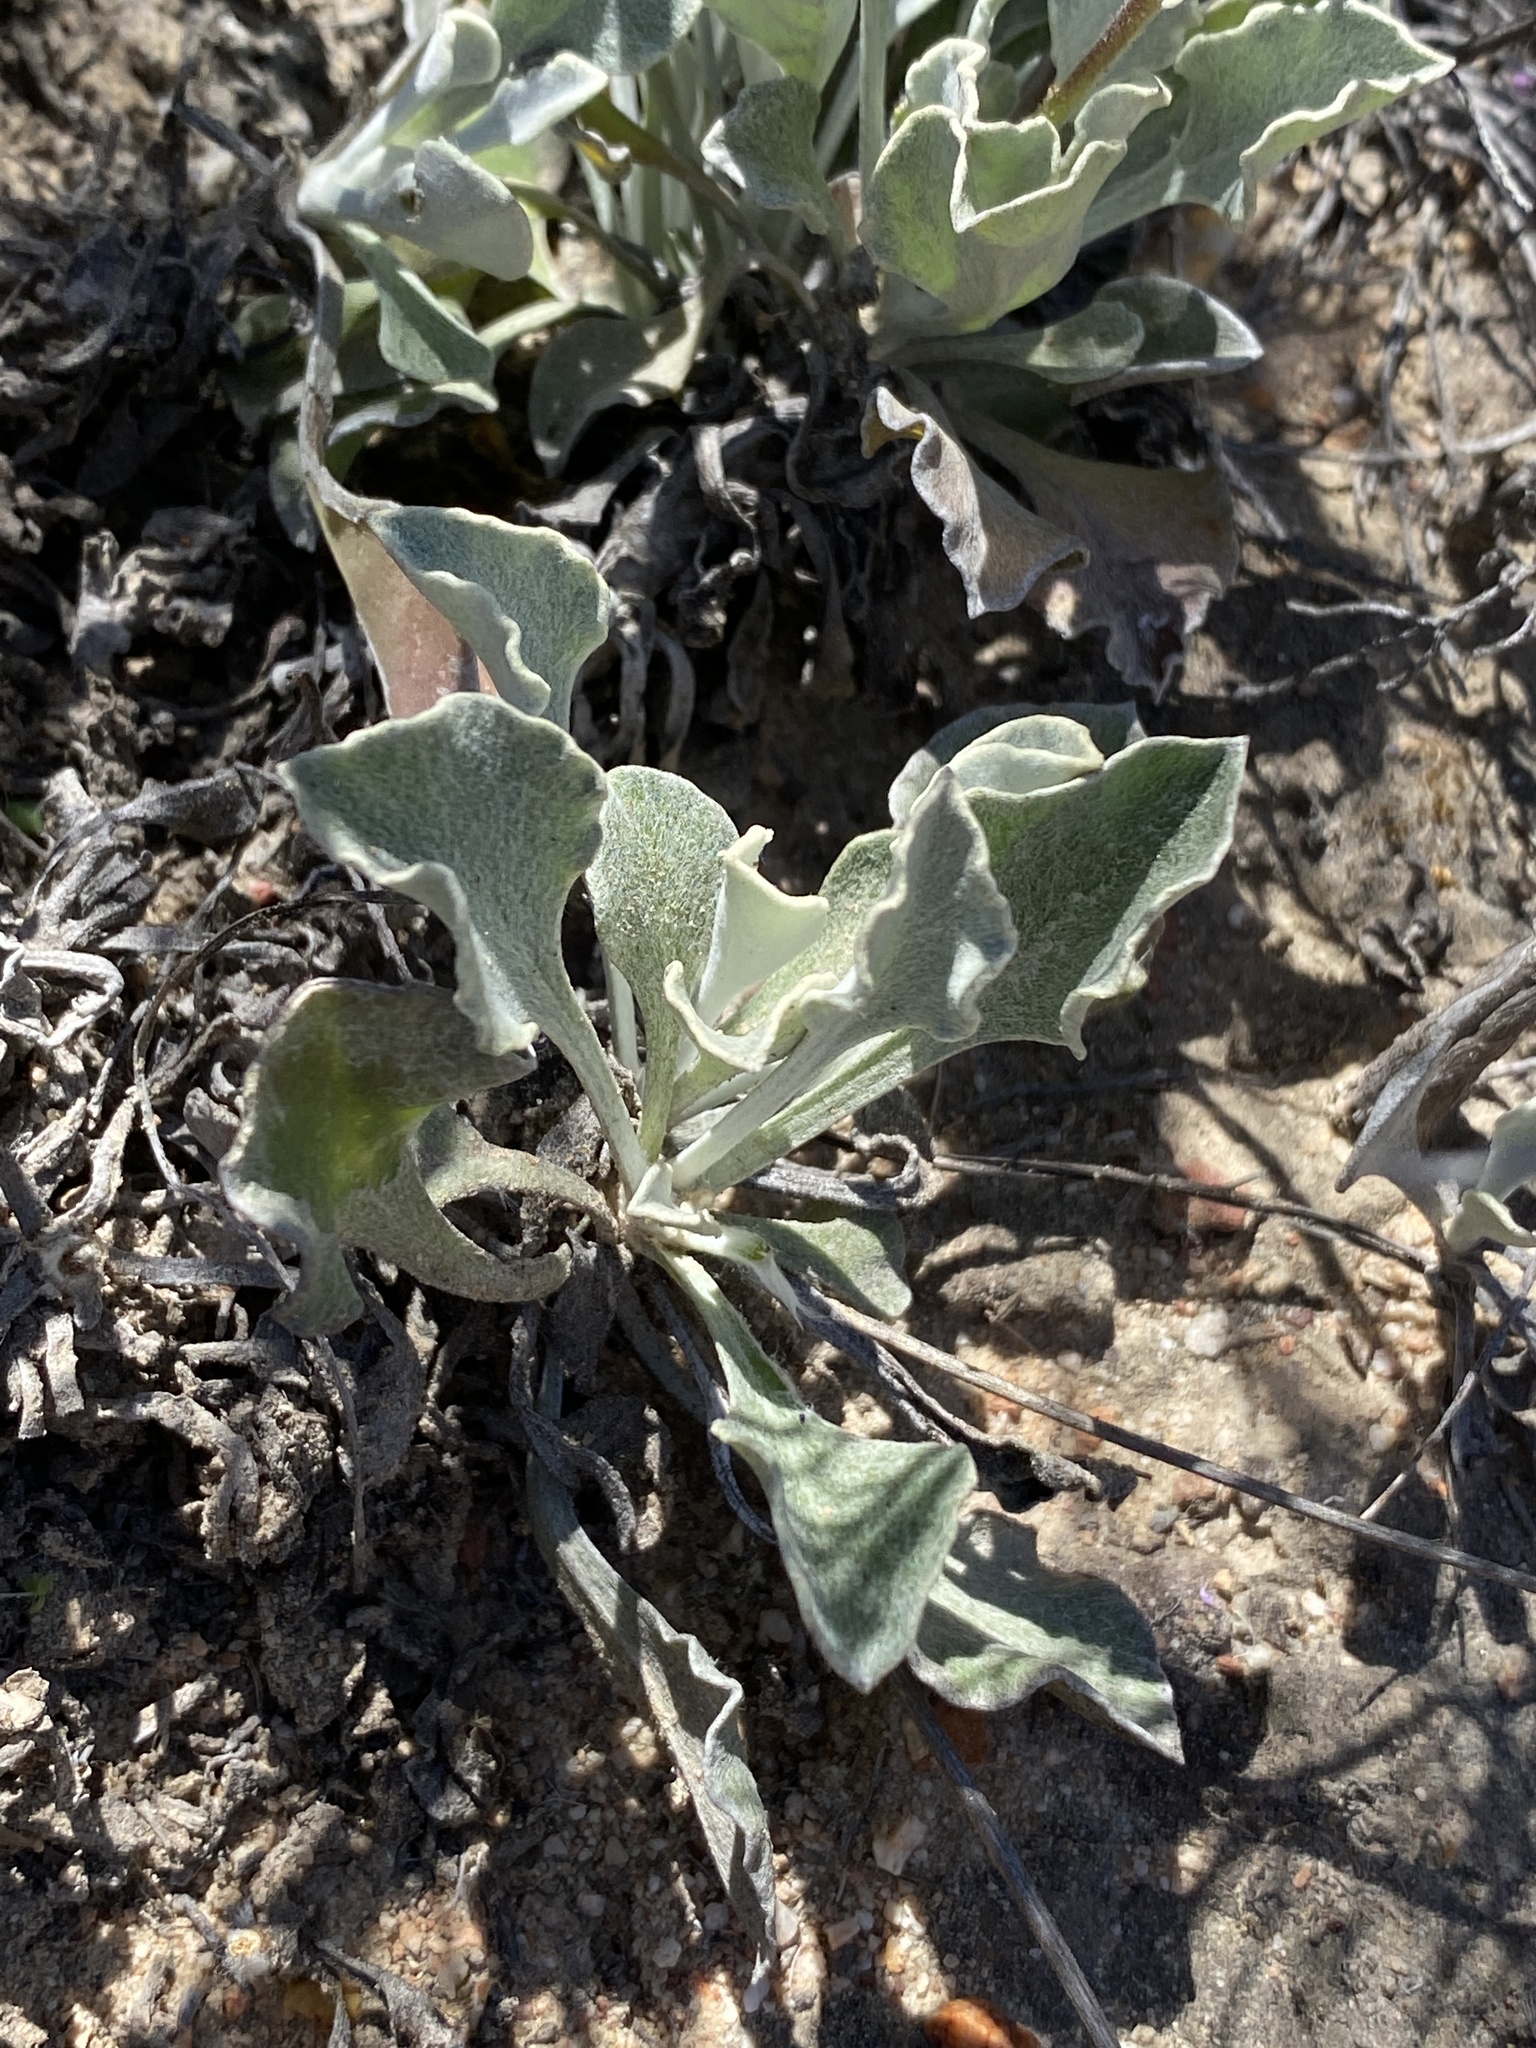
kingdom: Plantae
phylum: Tracheophyta
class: Magnoliopsida
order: Asterales
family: Asteraceae
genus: Osteospermum
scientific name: Osteospermum tomentosum
